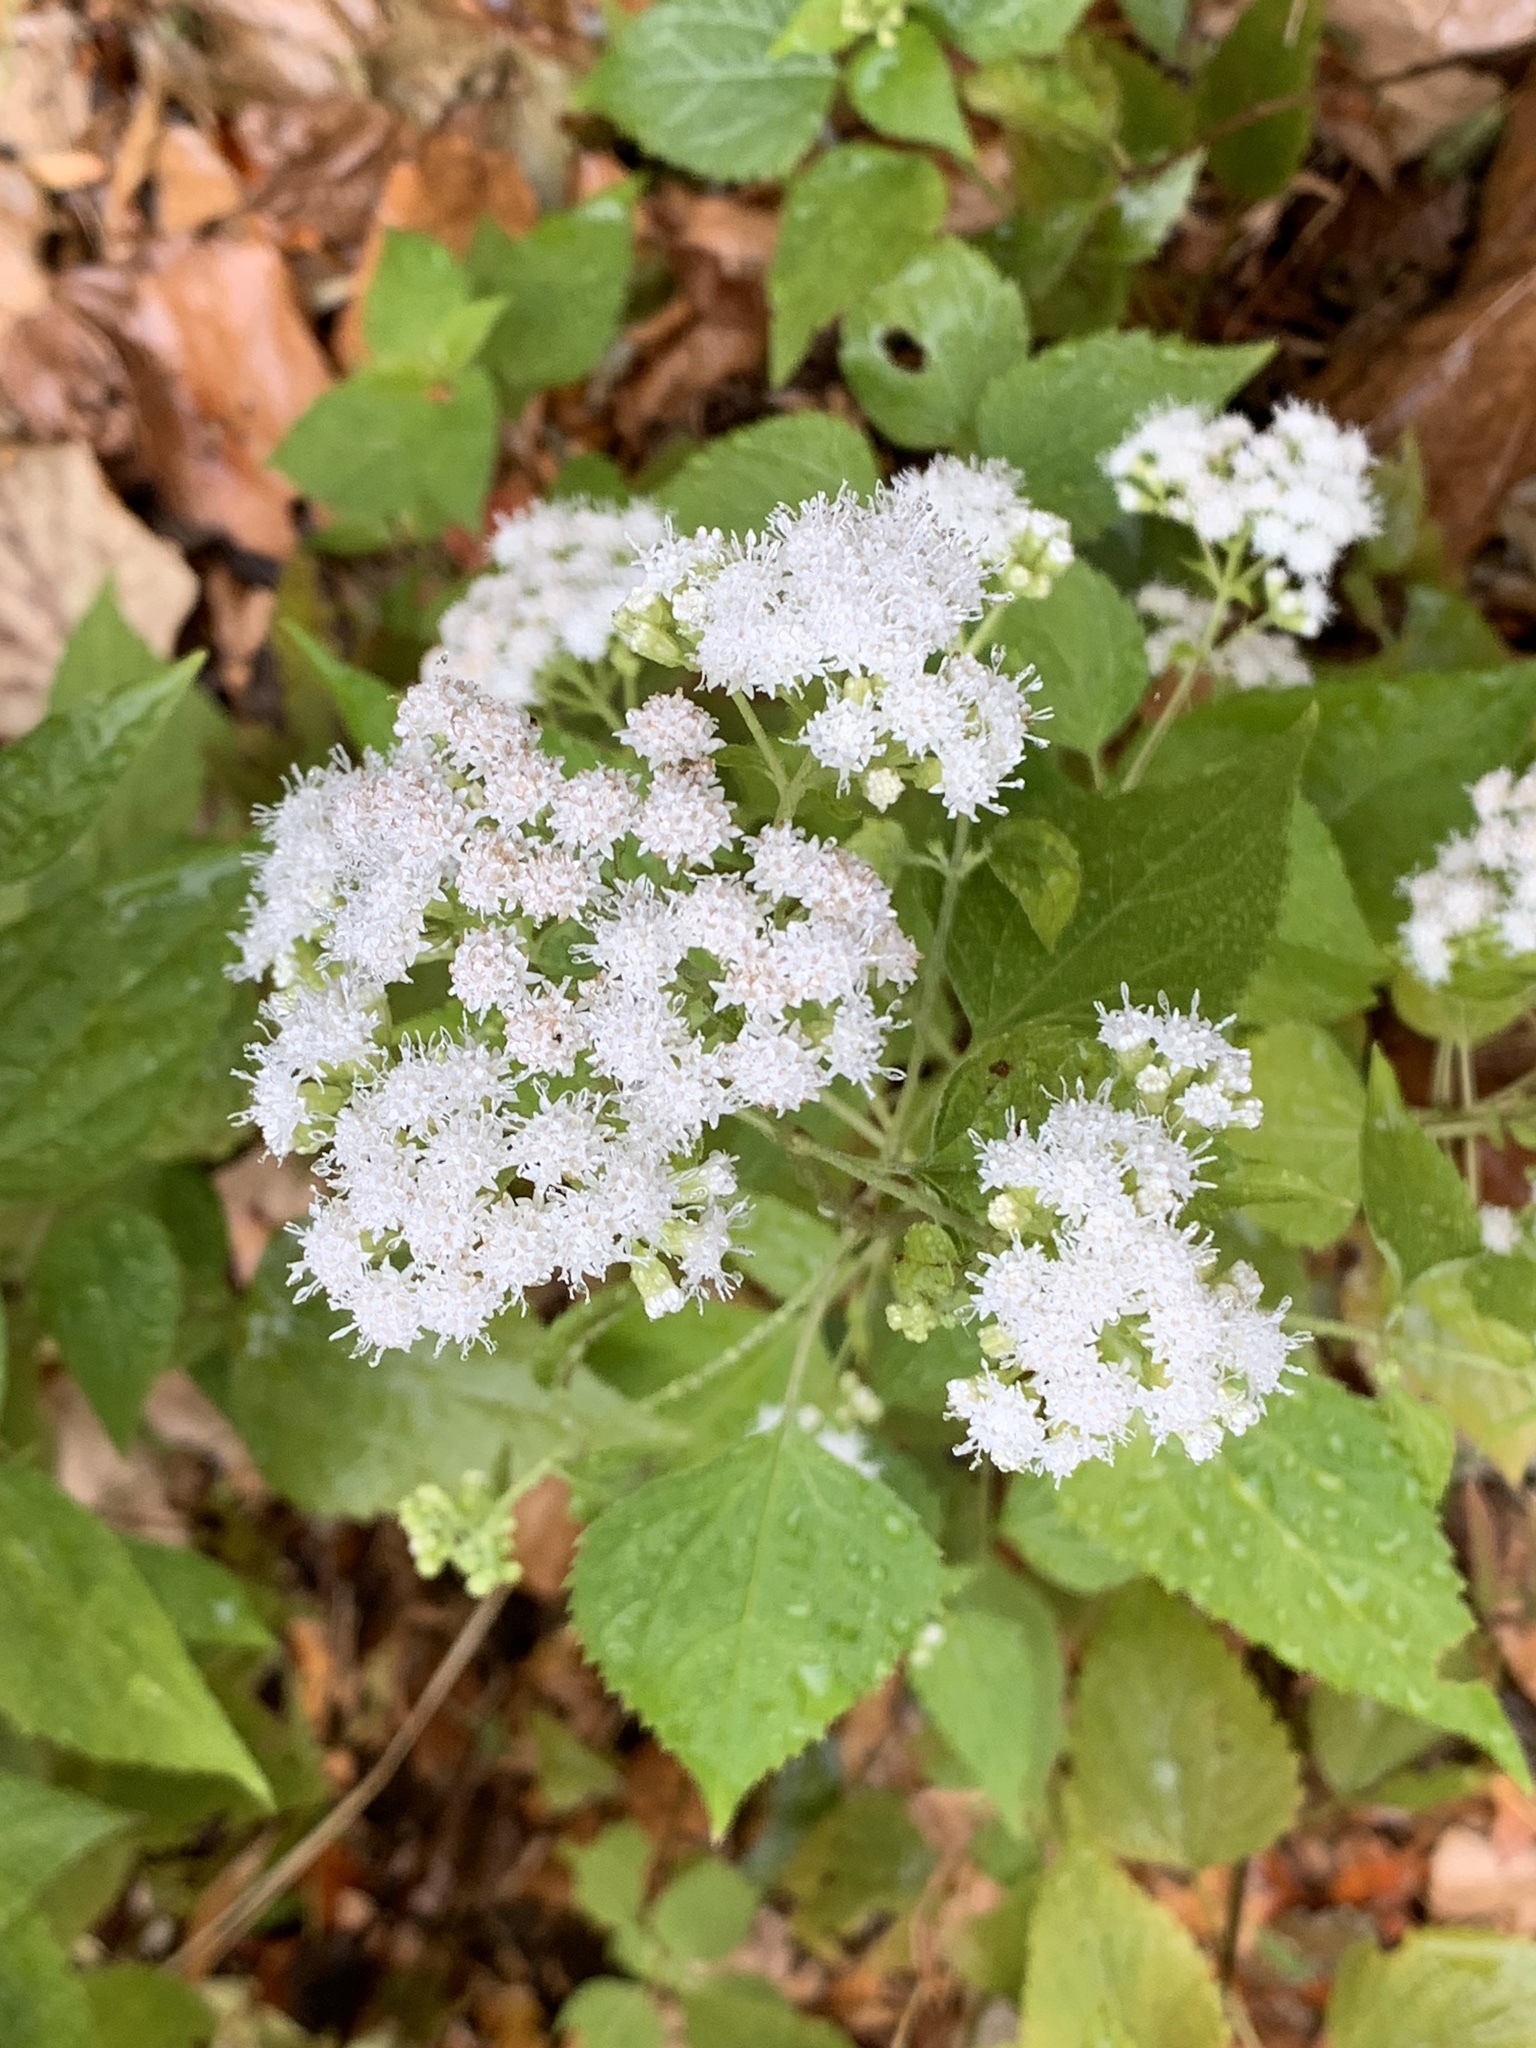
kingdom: Plantae
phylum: Tracheophyta
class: Magnoliopsida
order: Asterales
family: Asteraceae
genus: Ageratina
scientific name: Ageratina altissima
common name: White snakeroot
